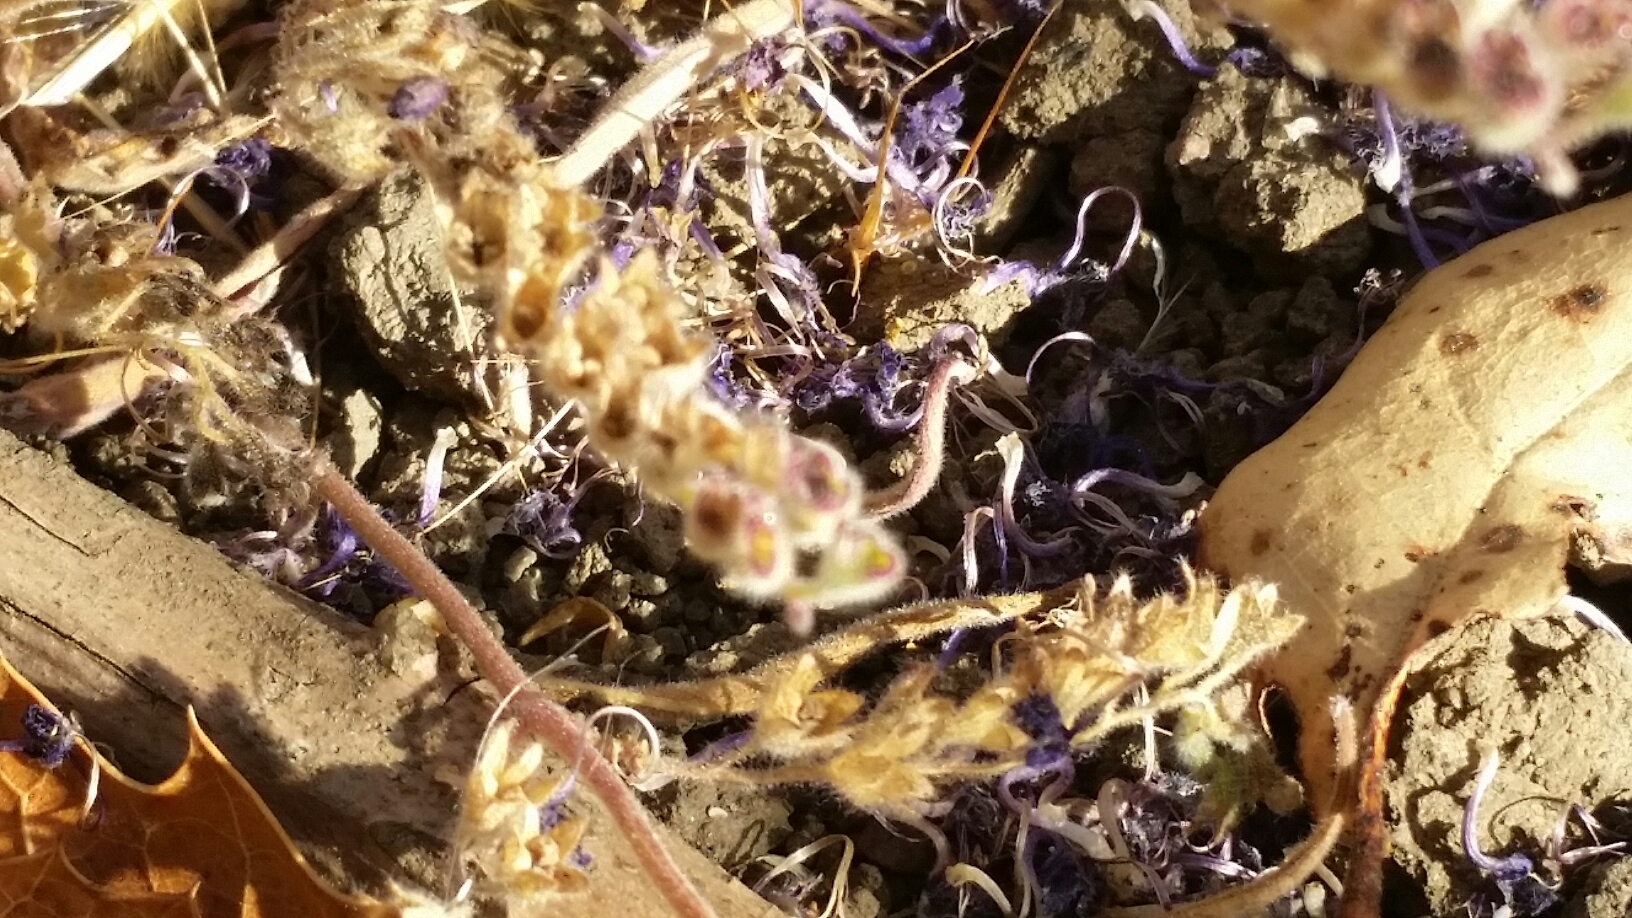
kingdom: Plantae
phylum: Tracheophyta
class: Magnoliopsida
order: Lamiales
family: Lamiaceae
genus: Trichostema
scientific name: Trichostema laxum
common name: Turpentine weed
